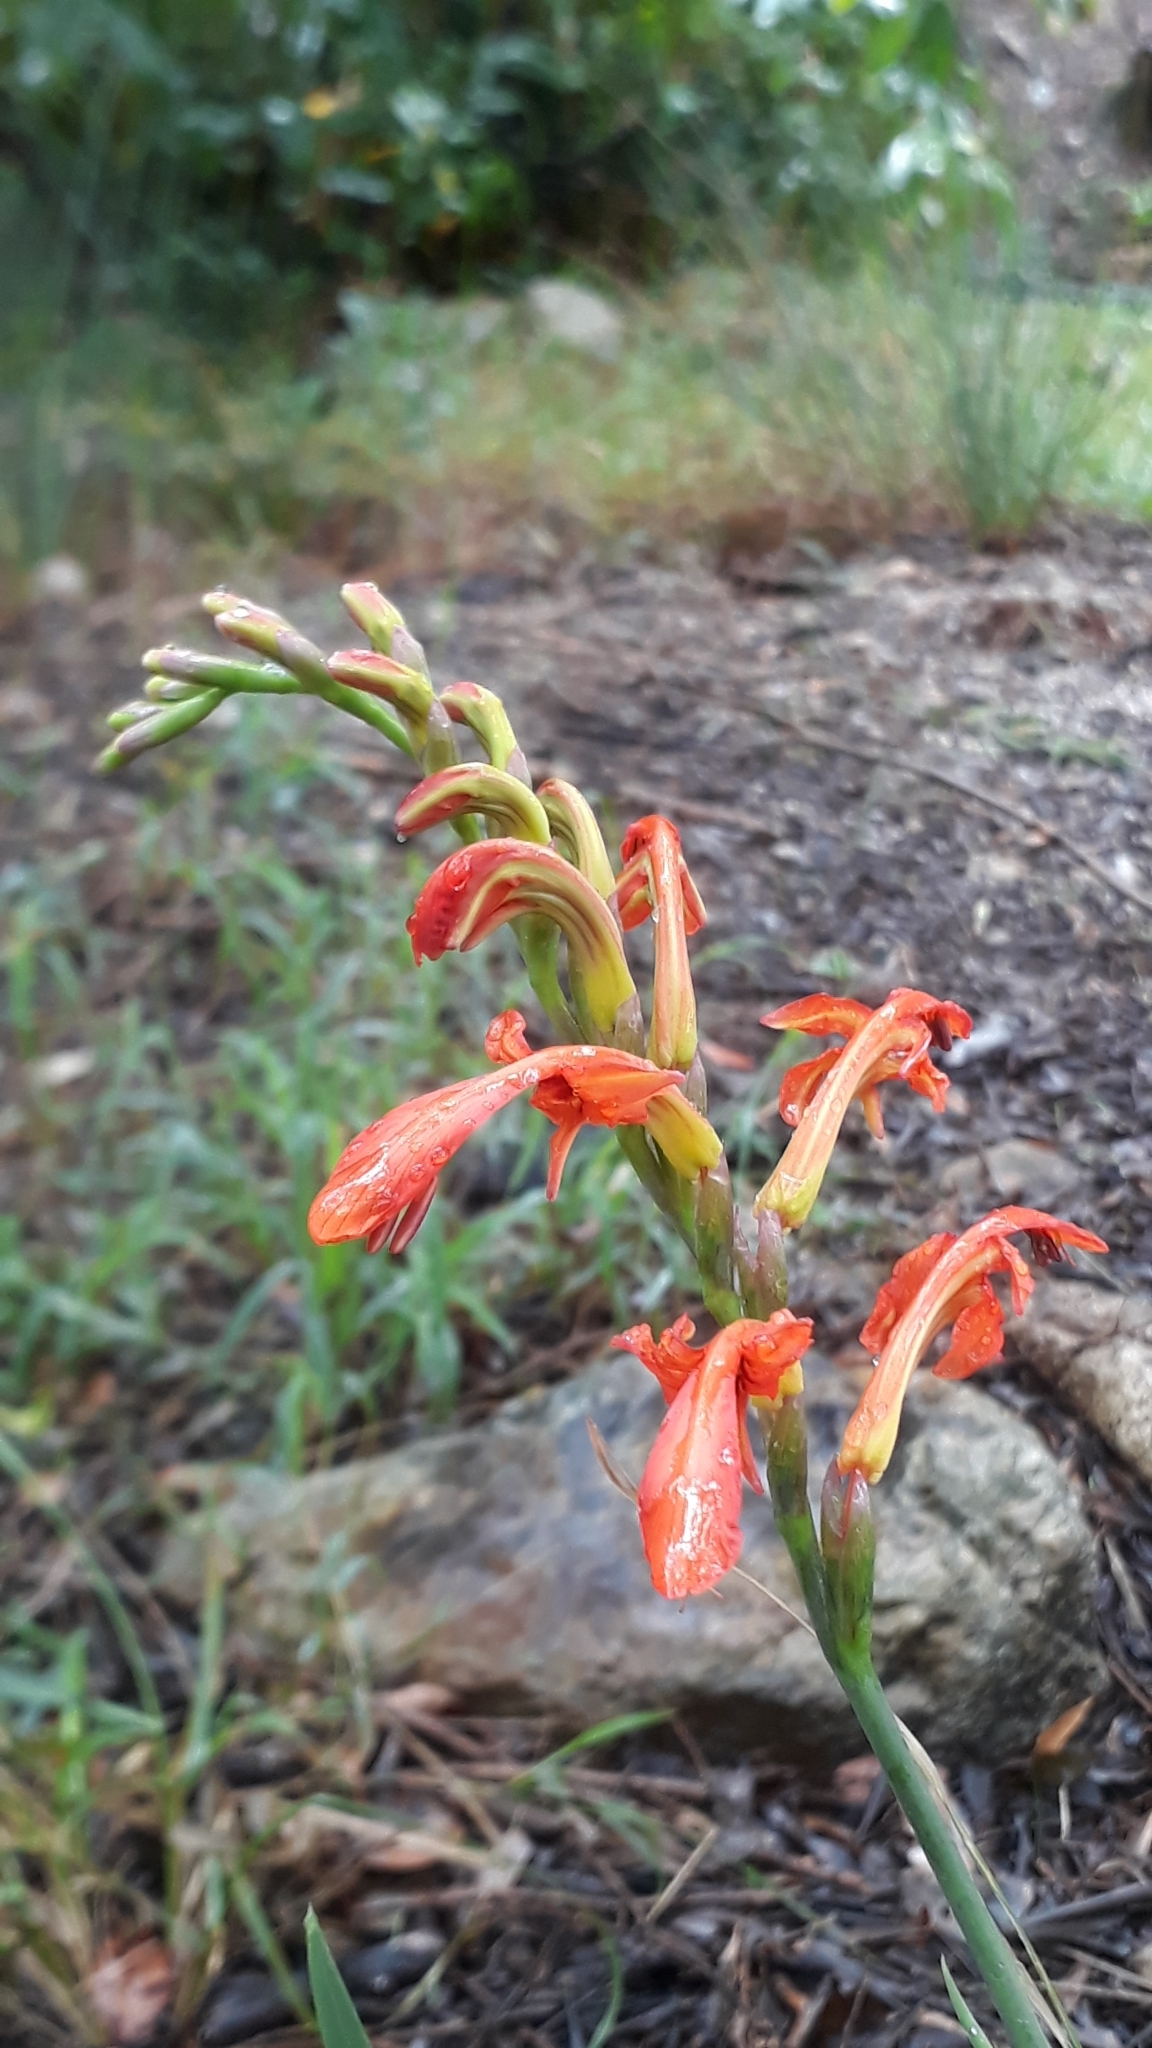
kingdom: Plantae
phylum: Tracheophyta
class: Liliopsida
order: Asparagales
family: Iridaceae
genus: Chasmanthe
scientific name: Chasmanthe aethiopica
